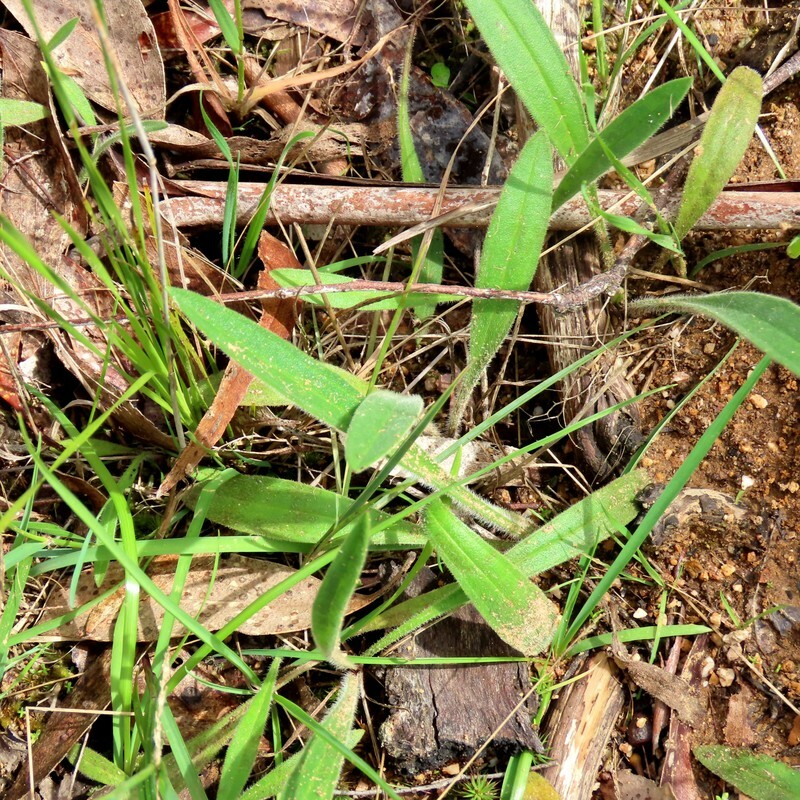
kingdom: Plantae
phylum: Tracheophyta
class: Magnoliopsida
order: Lamiales
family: Plantaginaceae
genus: Plantago
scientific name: Plantago varia
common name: Variable plantain
